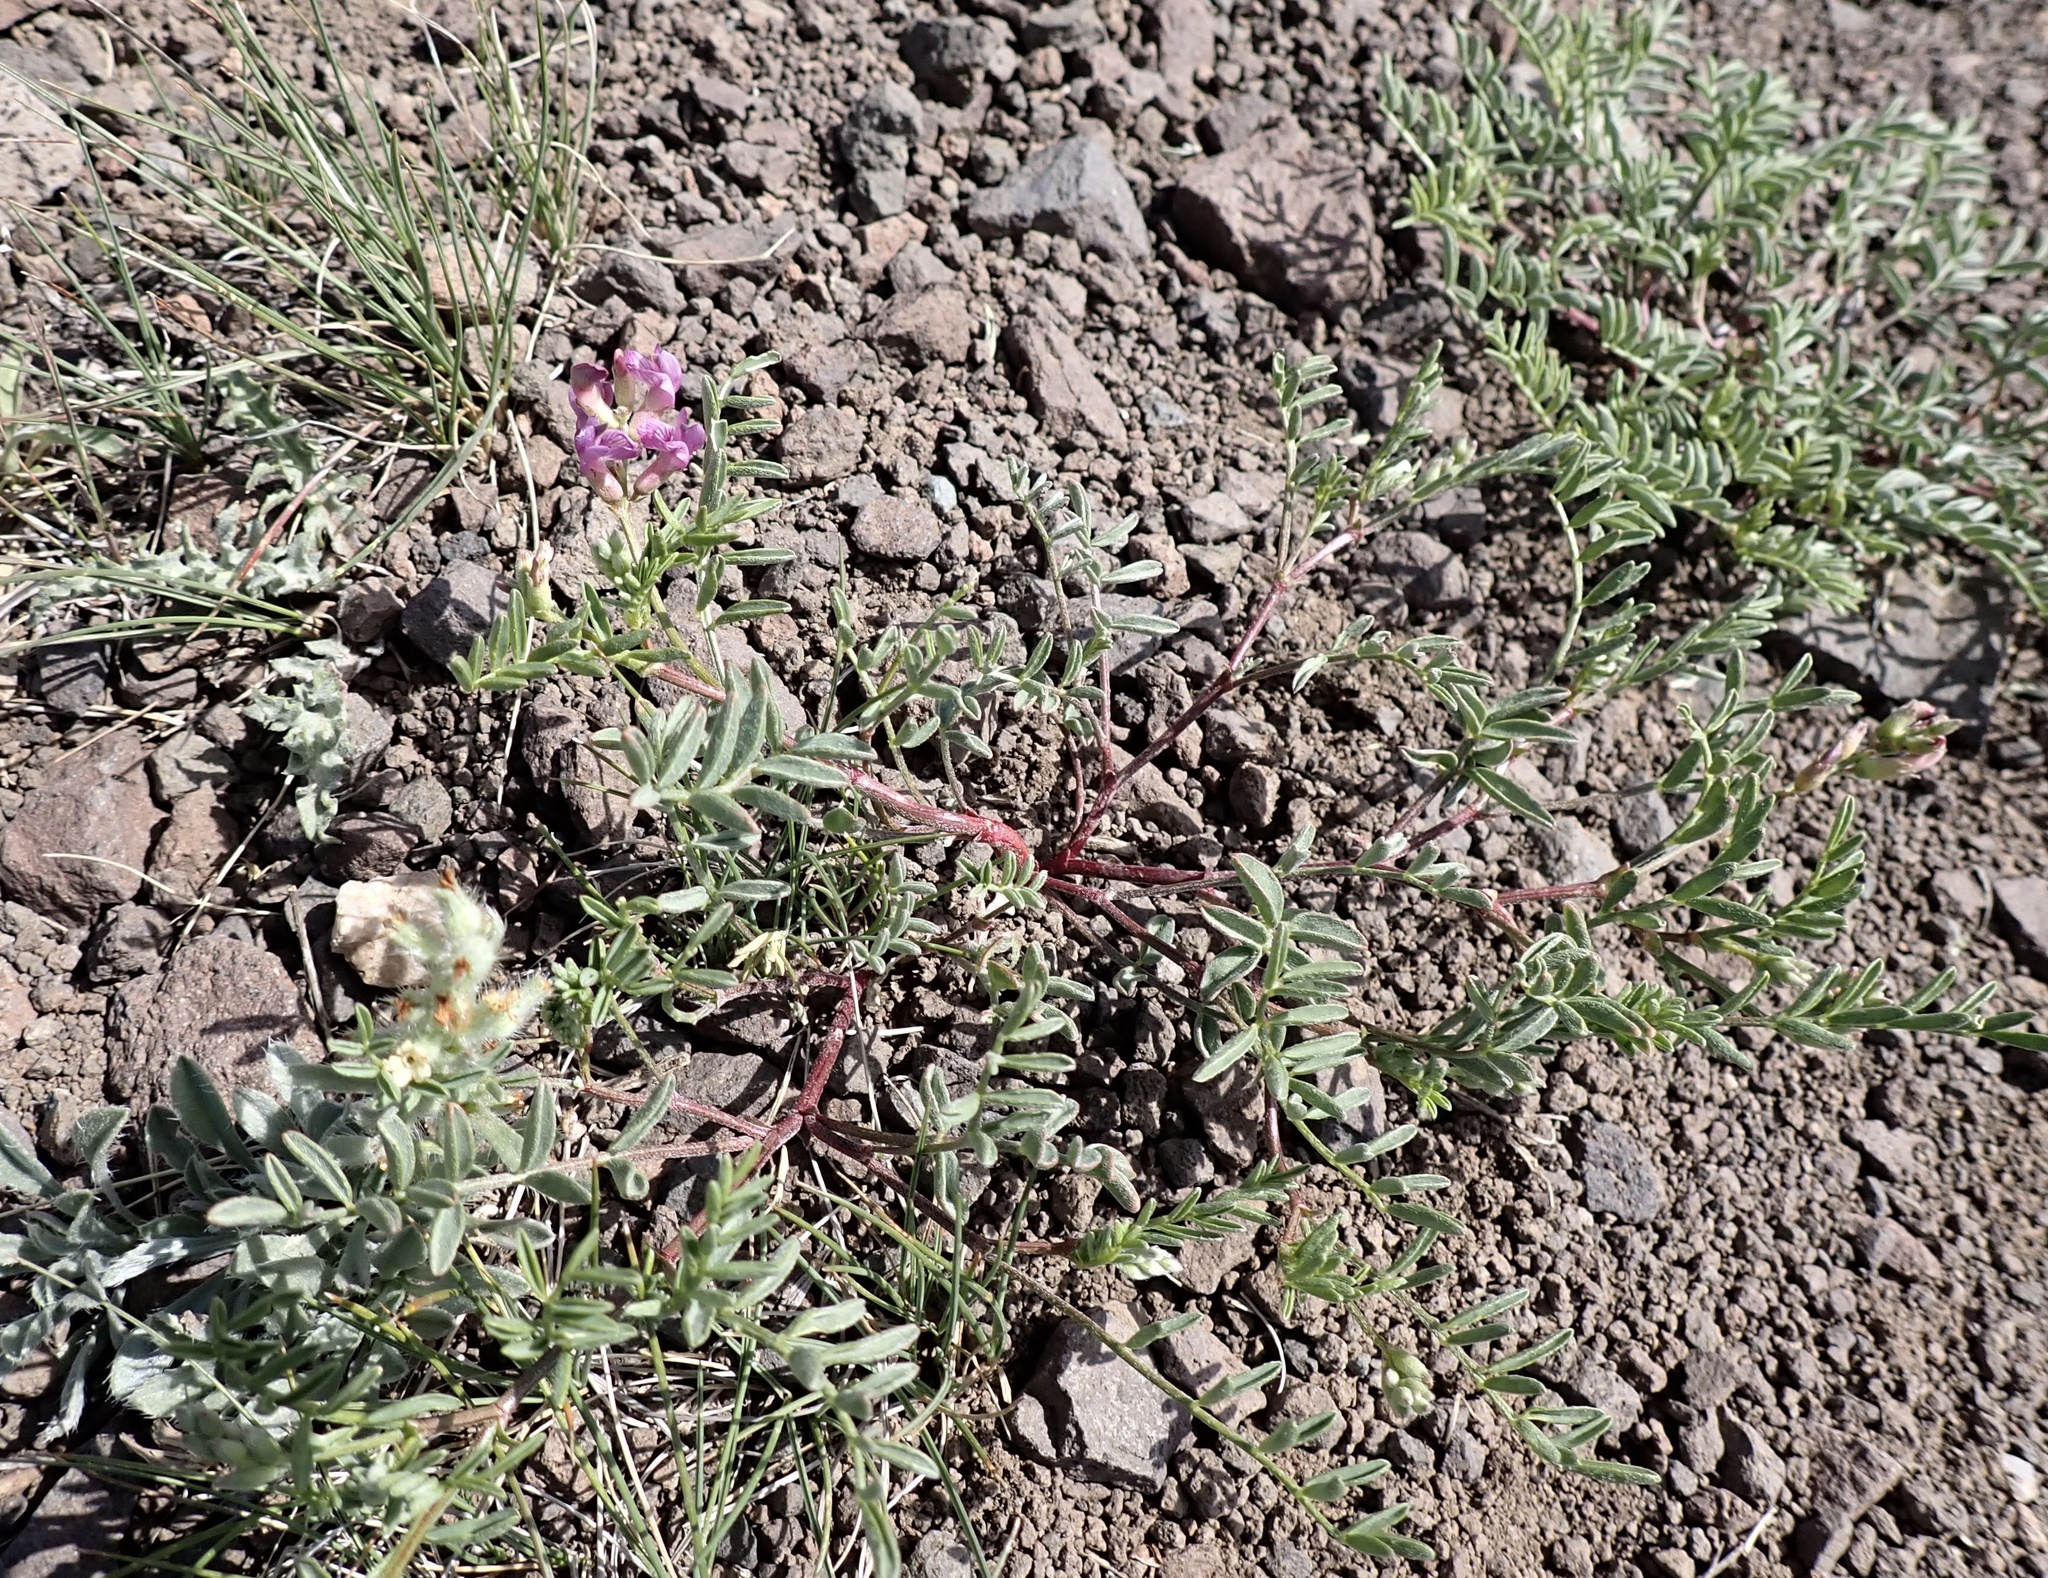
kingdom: Plantae
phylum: Tracheophyta
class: Magnoliopsida
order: Fabales
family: Fabaceae
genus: Astragalus
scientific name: Astragalus whitneyi
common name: Balloonpod milkvetch
